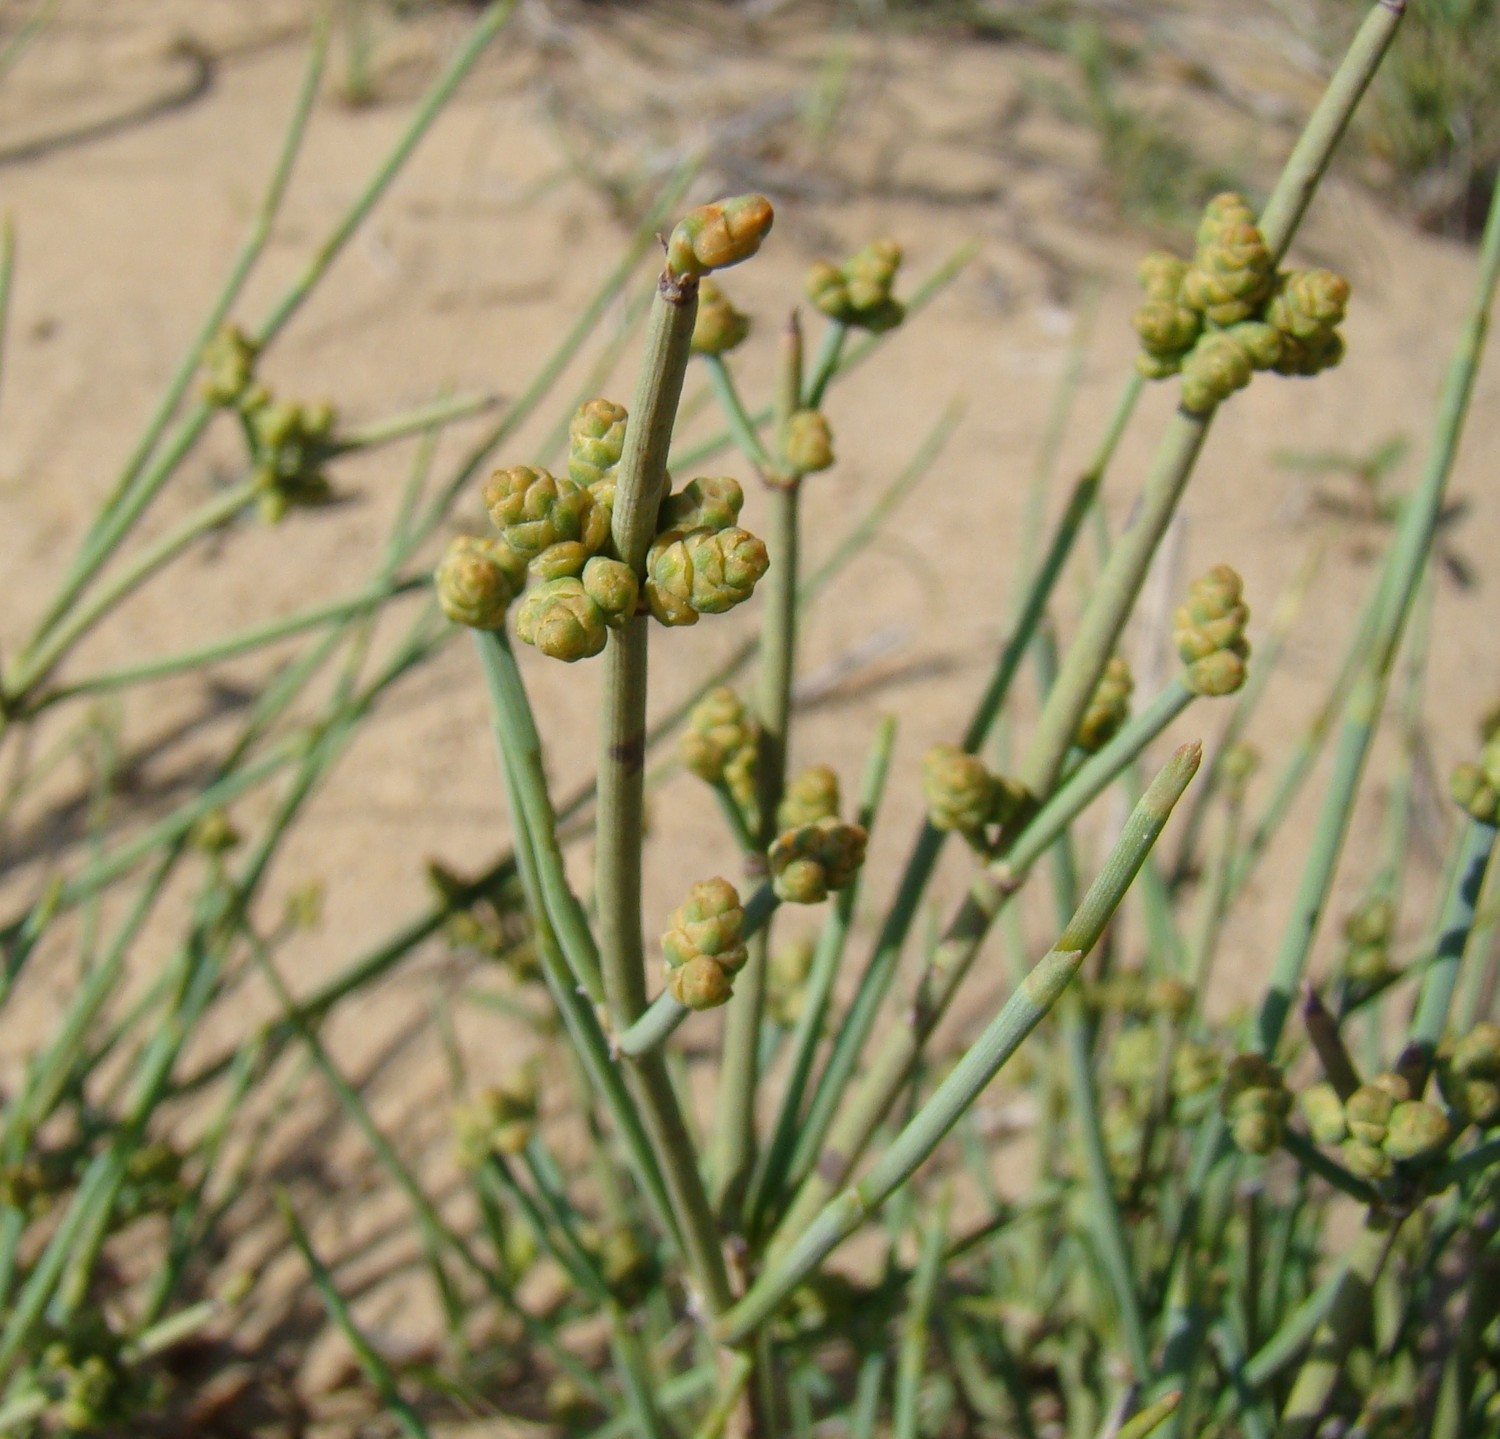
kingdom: Plantae
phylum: Tracheophyta
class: Gnetopsida
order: Ephedrales
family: Ephedraceae
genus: Ephedra
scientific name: Ephedra intermedia
